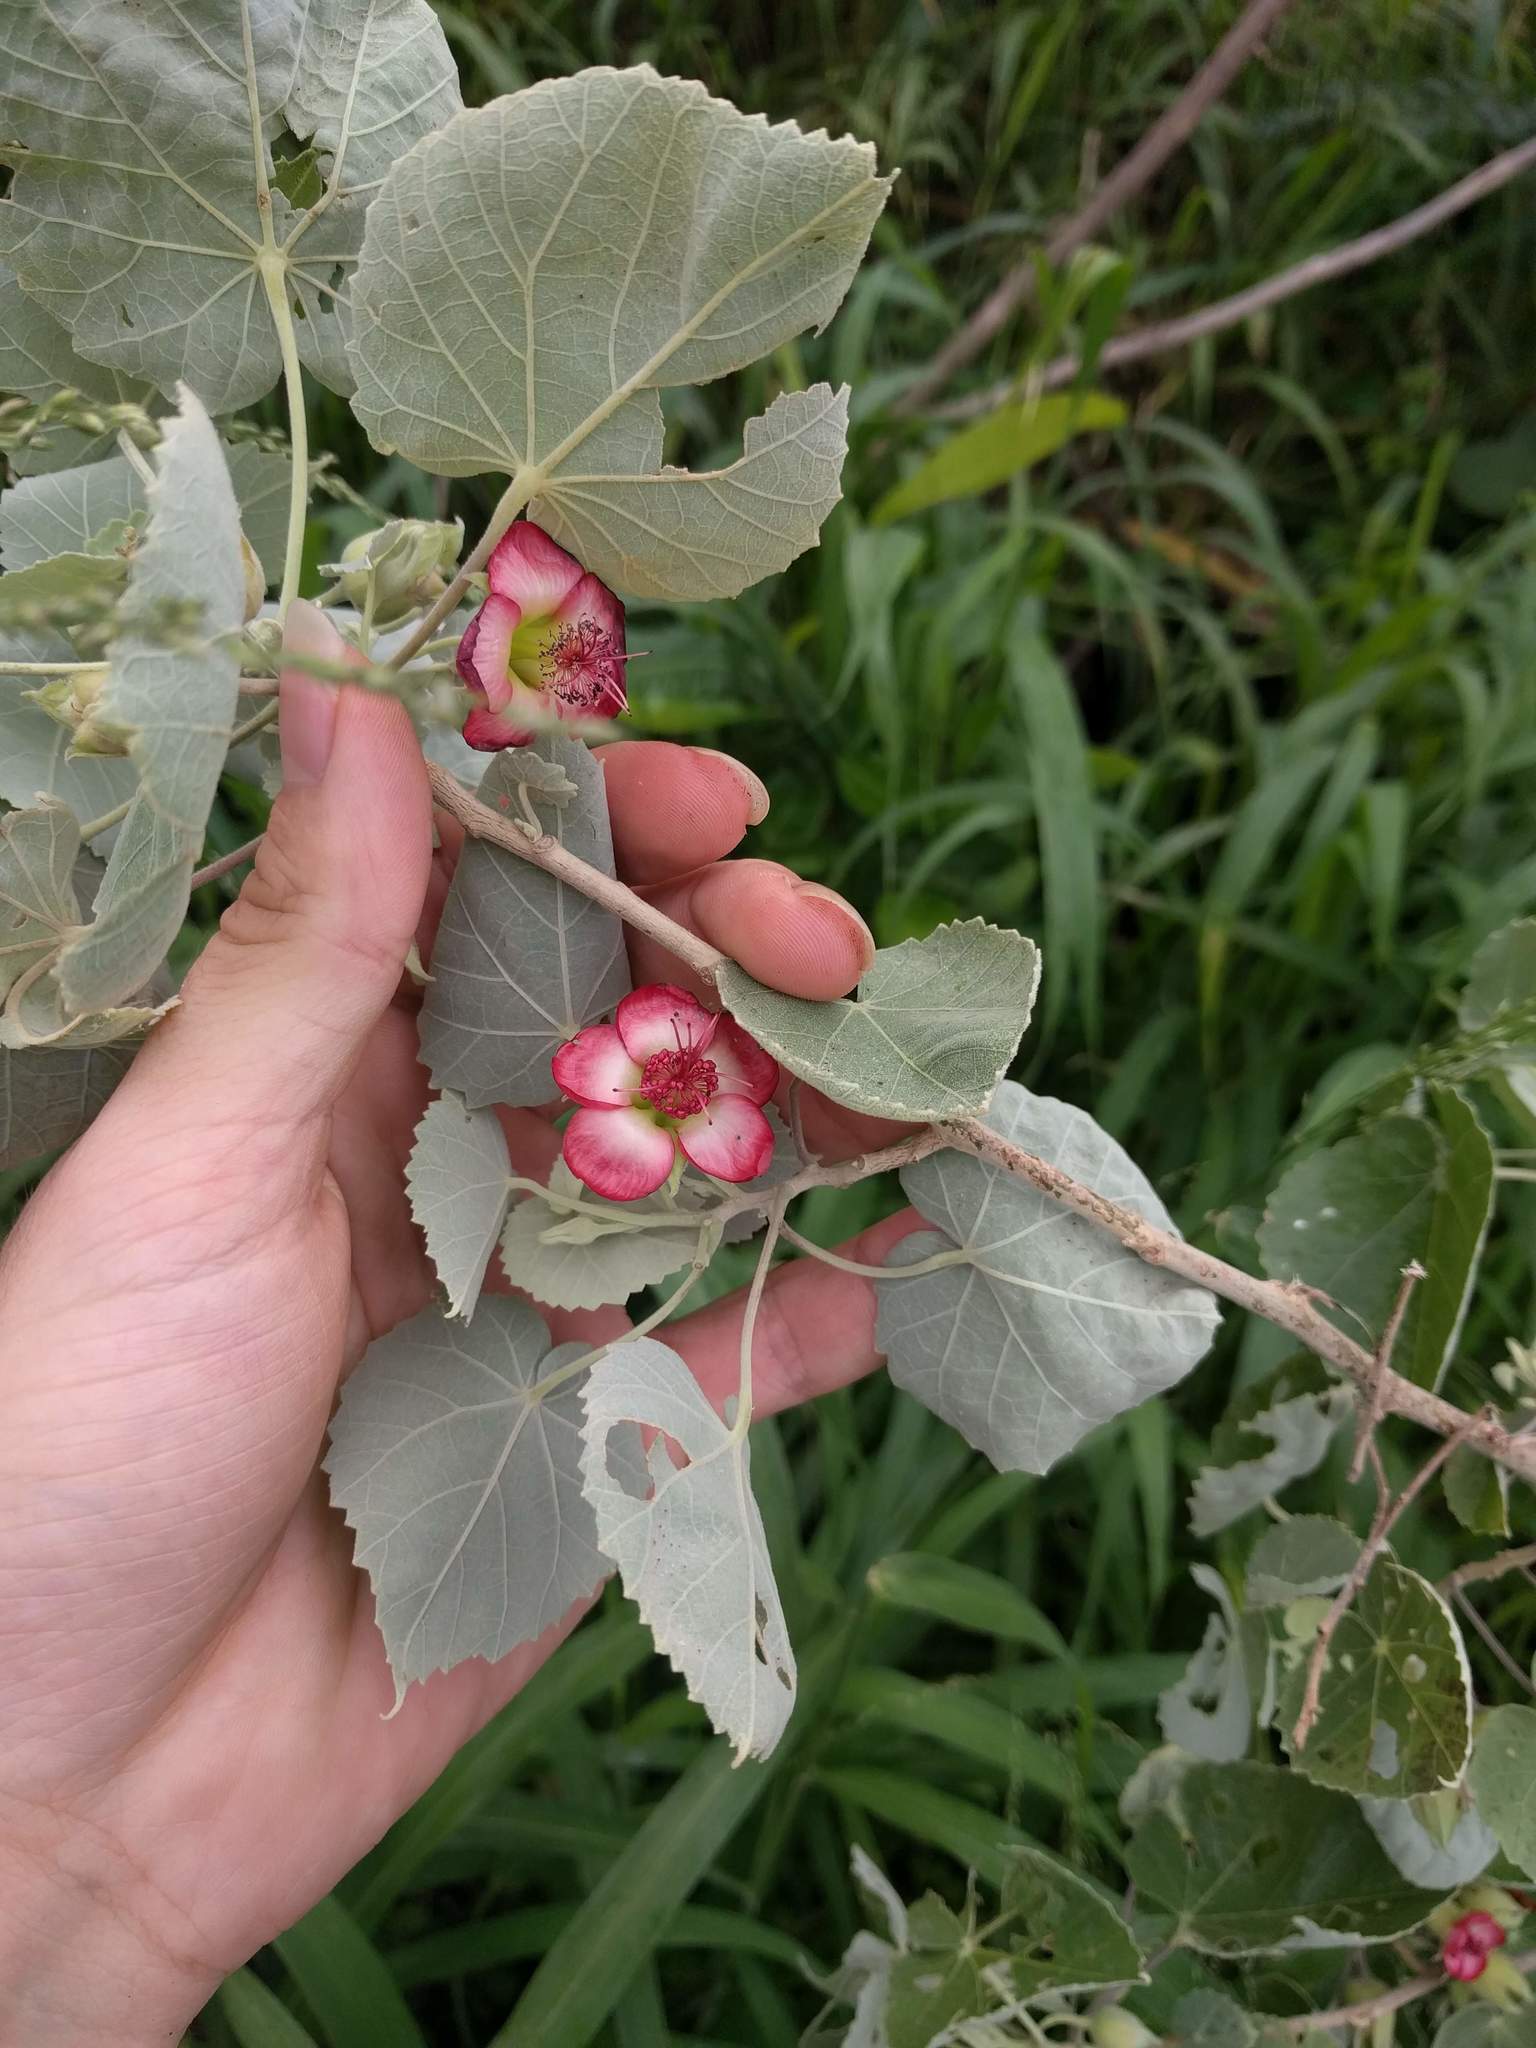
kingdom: Plantae
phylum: Tracheophyta
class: Magnoliopsida
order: Malvales
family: Malvaceae
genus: Abutilon
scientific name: Abutilon menziesii
